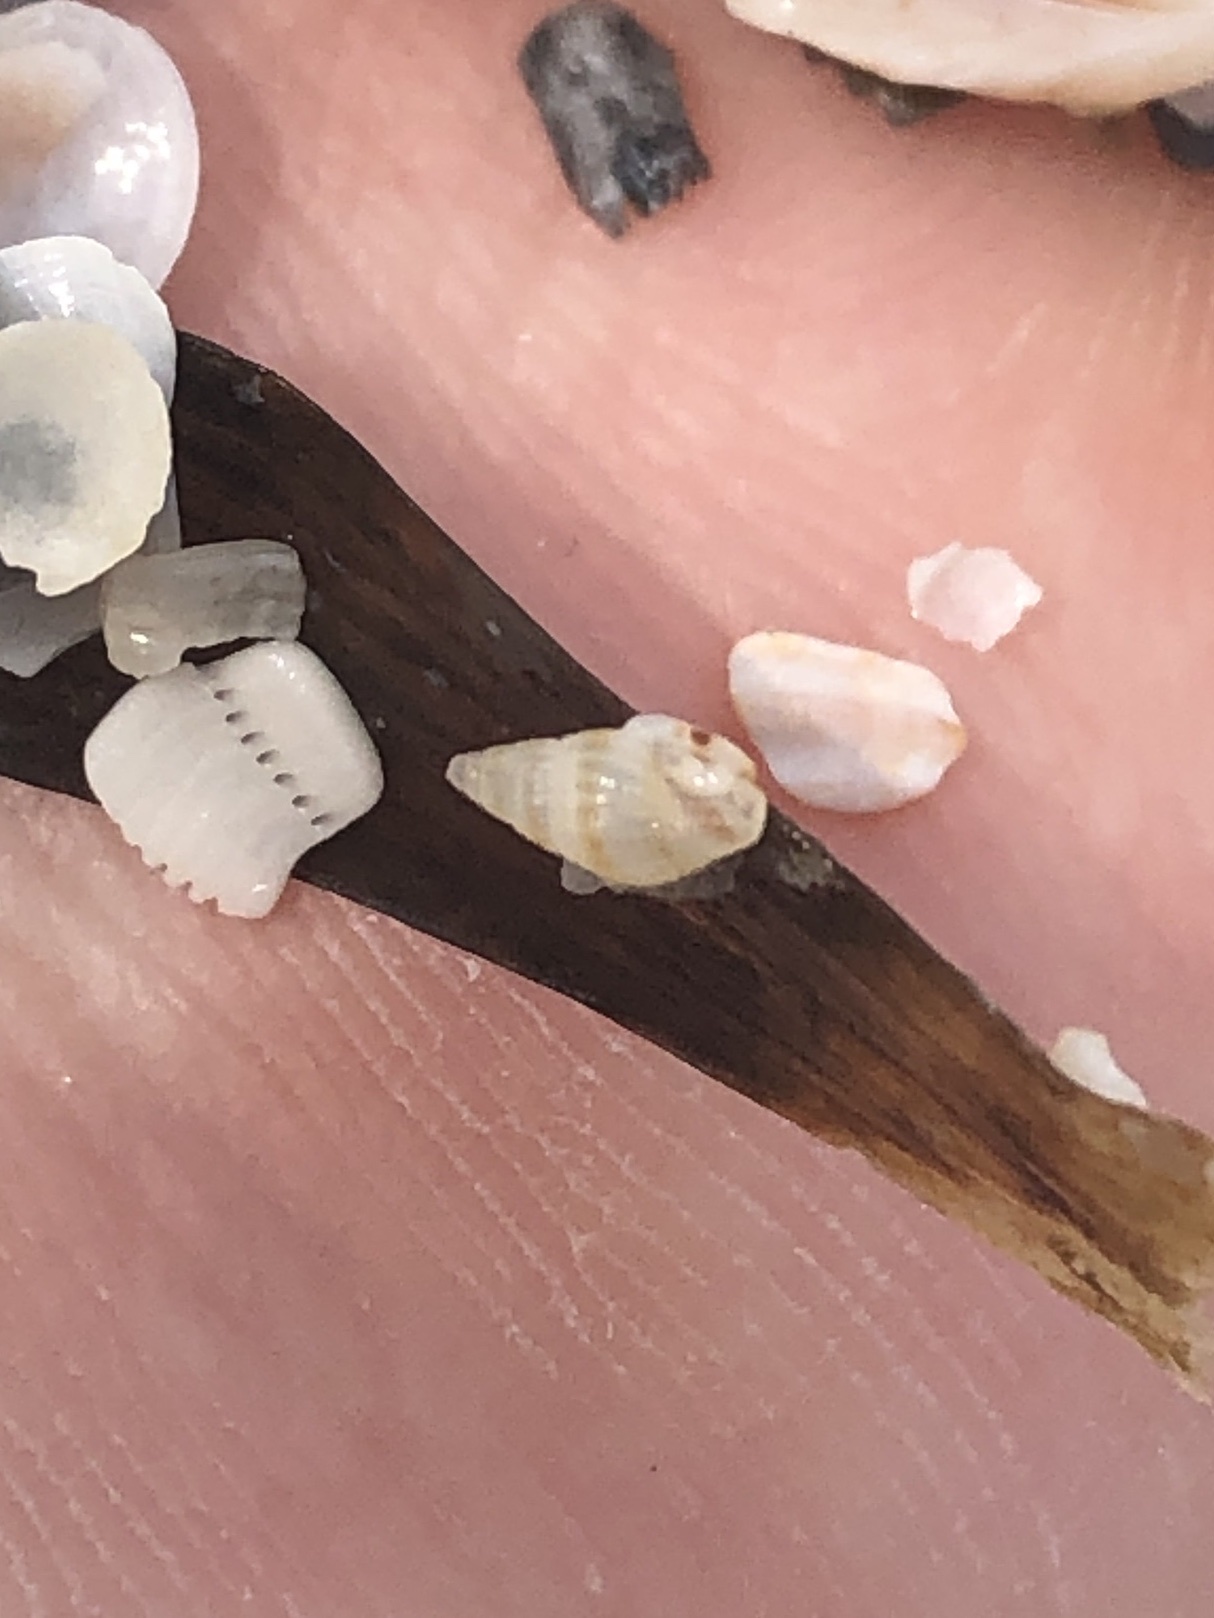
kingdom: Animalia
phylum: Mollusca
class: Gastropoda
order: Neogastropoda
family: Columbellidae
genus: Parvanachis
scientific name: Parvanachis obesa
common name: Fat dovesnail
